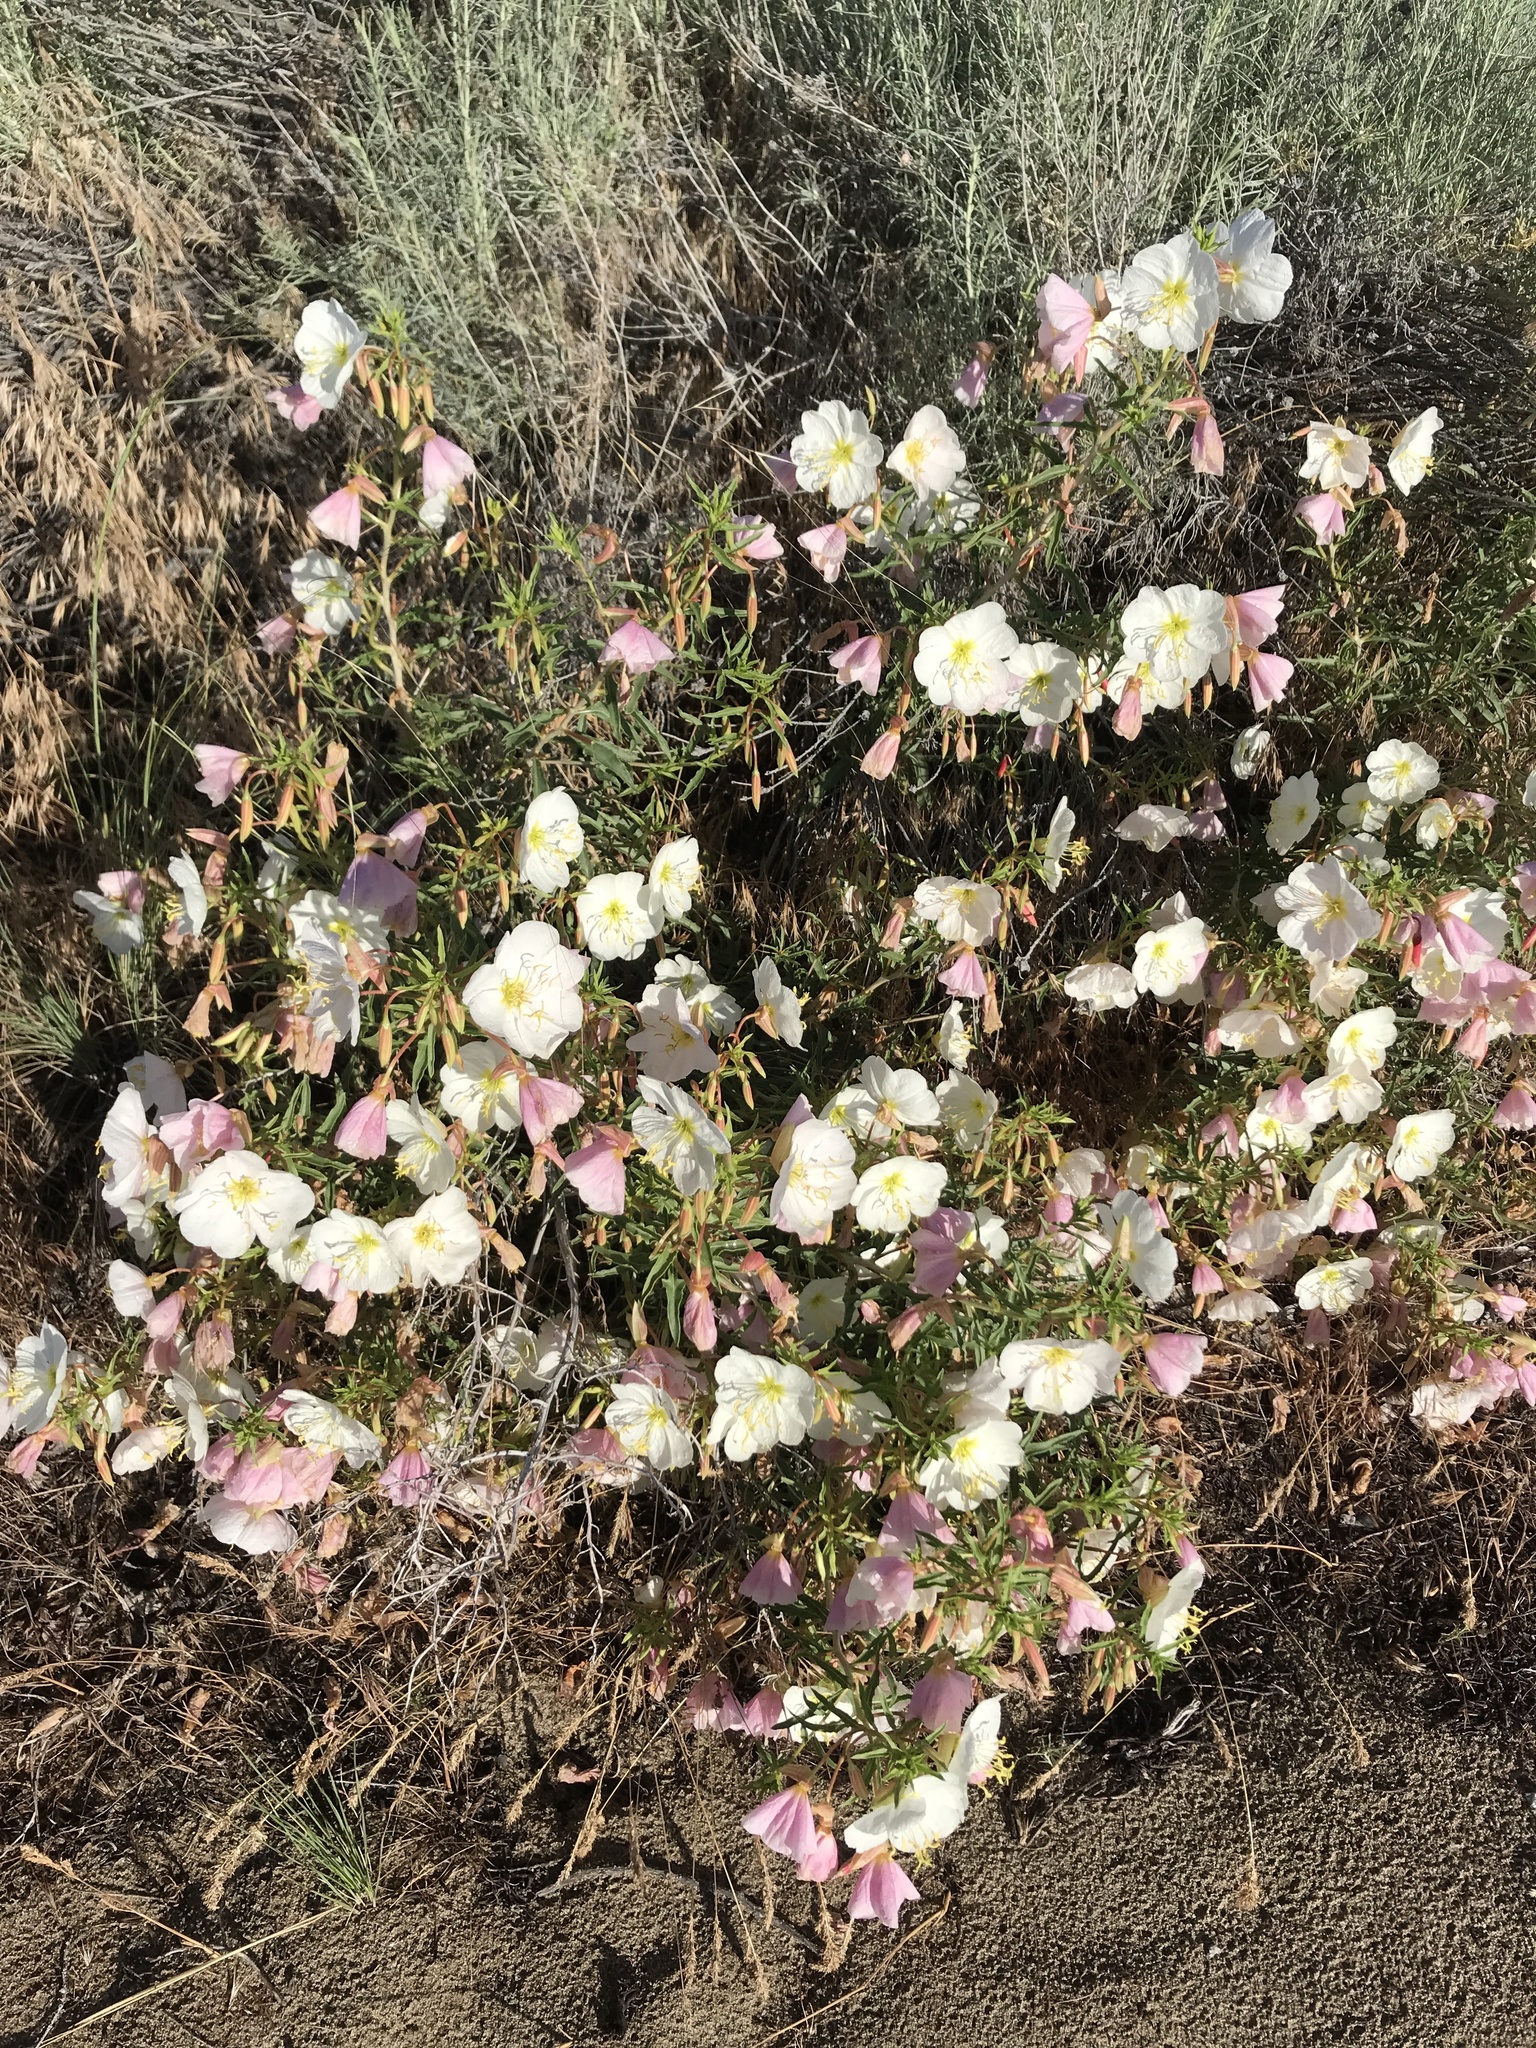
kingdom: Plantae
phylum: Tracheophyta
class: Magnoliopsida
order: Myrtales
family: Onagraceae
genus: Oenothera
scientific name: Oenothera pallida
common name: Pale evening-primrose
